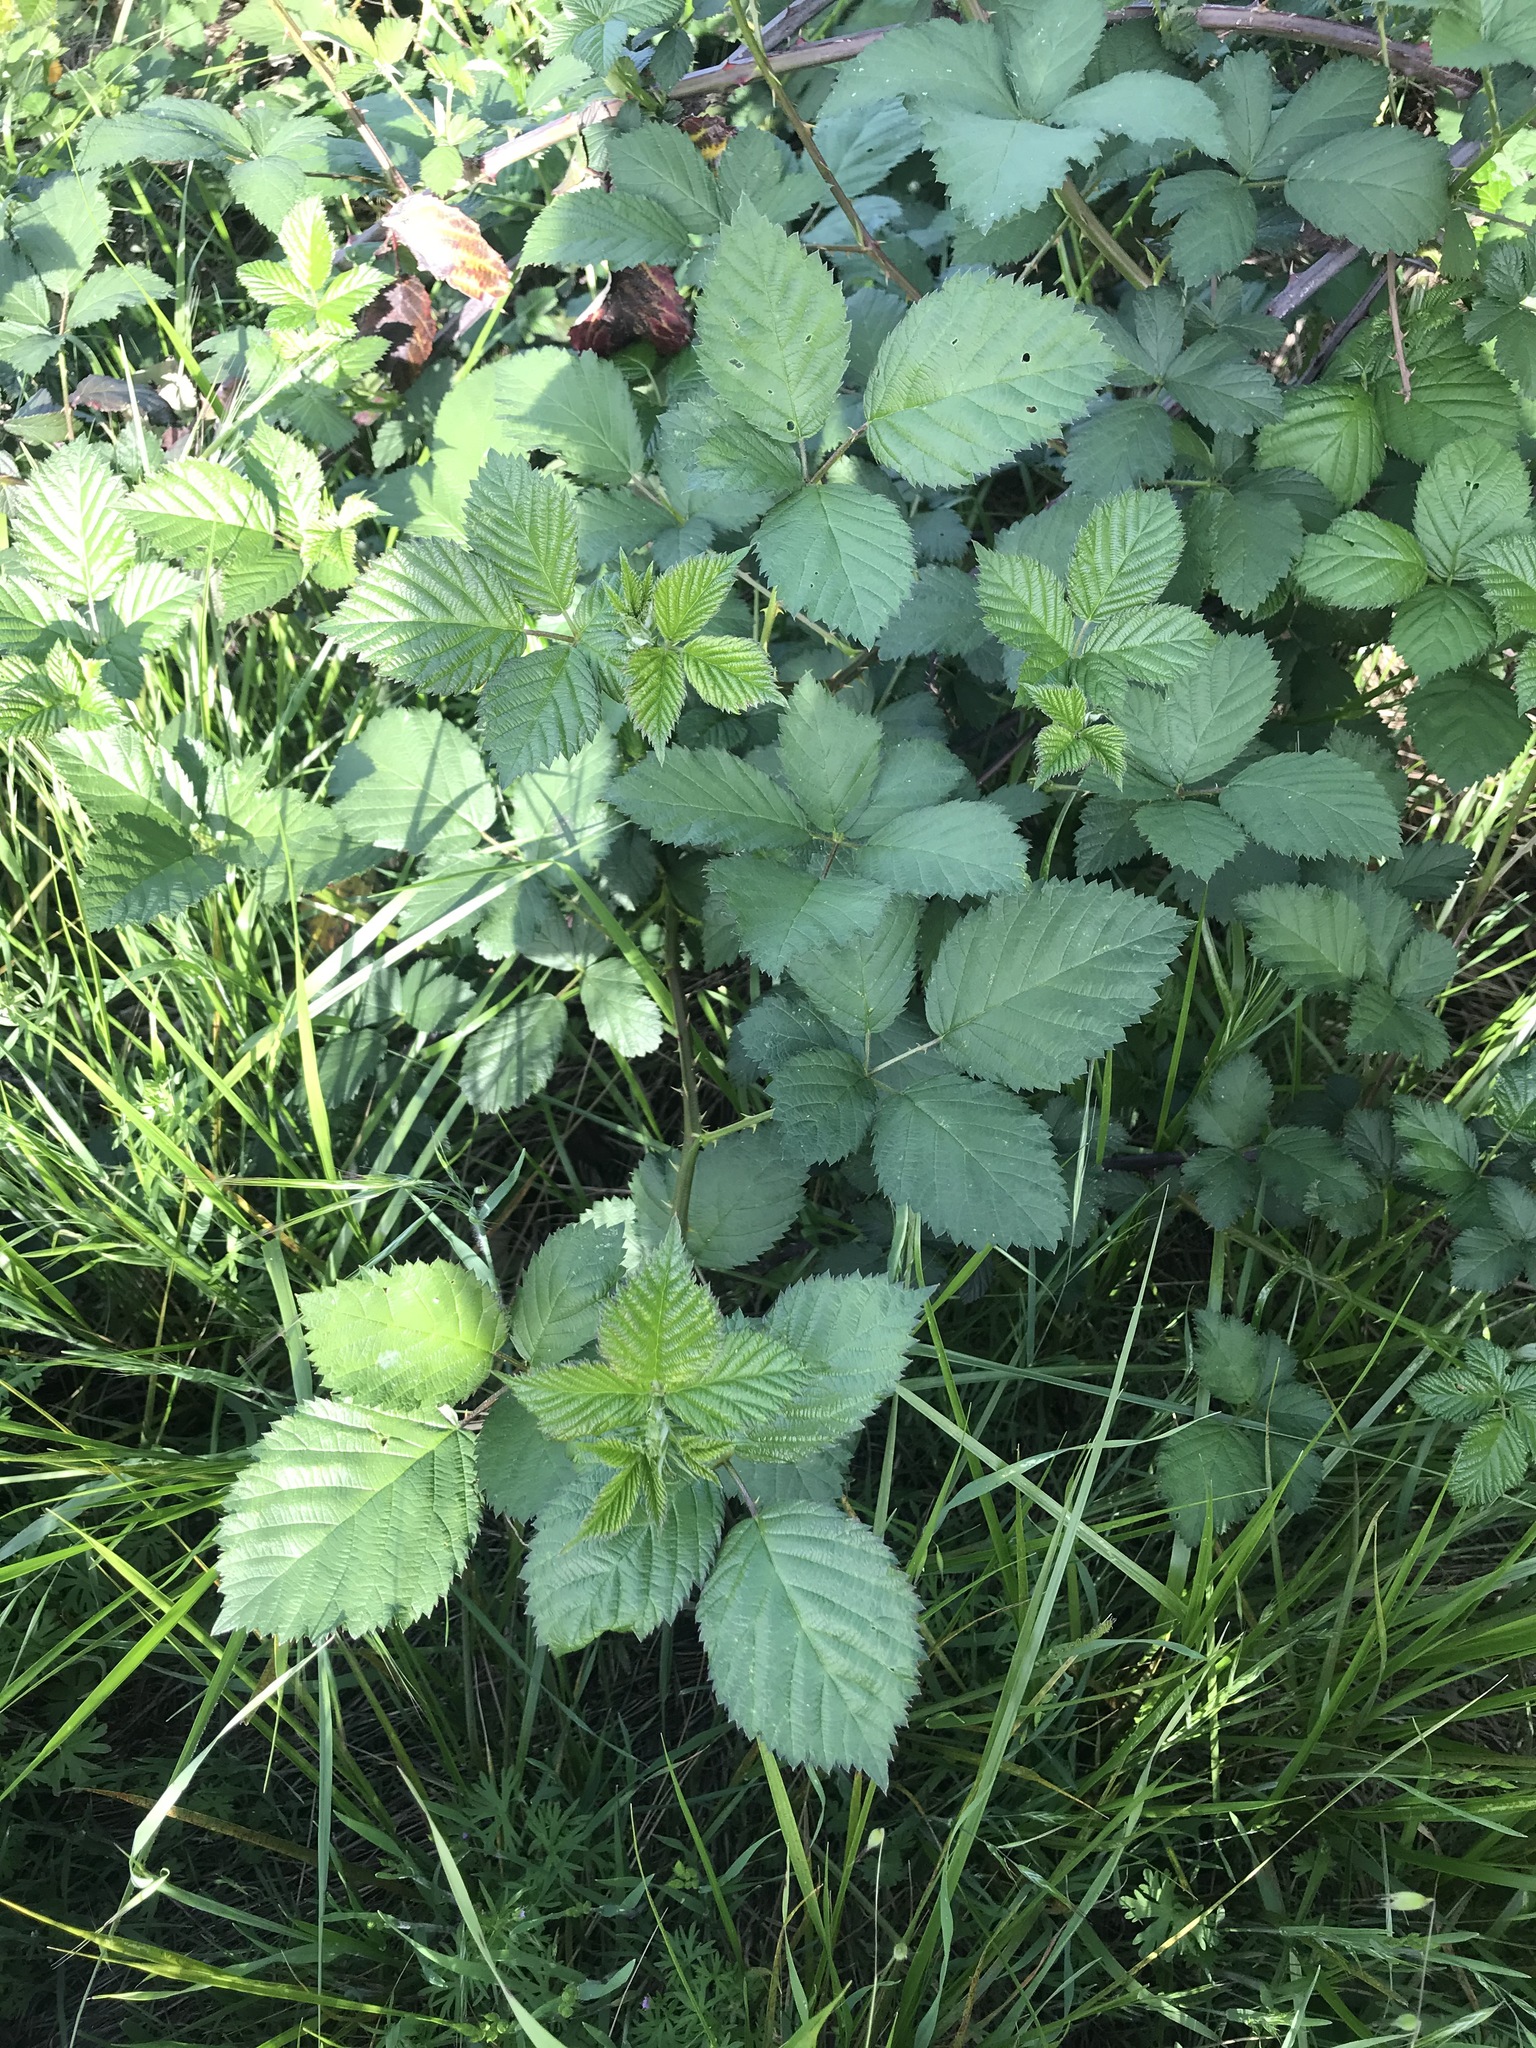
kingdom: Plantae
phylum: Tracheophyta
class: Magnoliopsida
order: Rosales
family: Rosaceae
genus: Rubus
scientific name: Rubus armeniacus
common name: Himalayan blackberry
